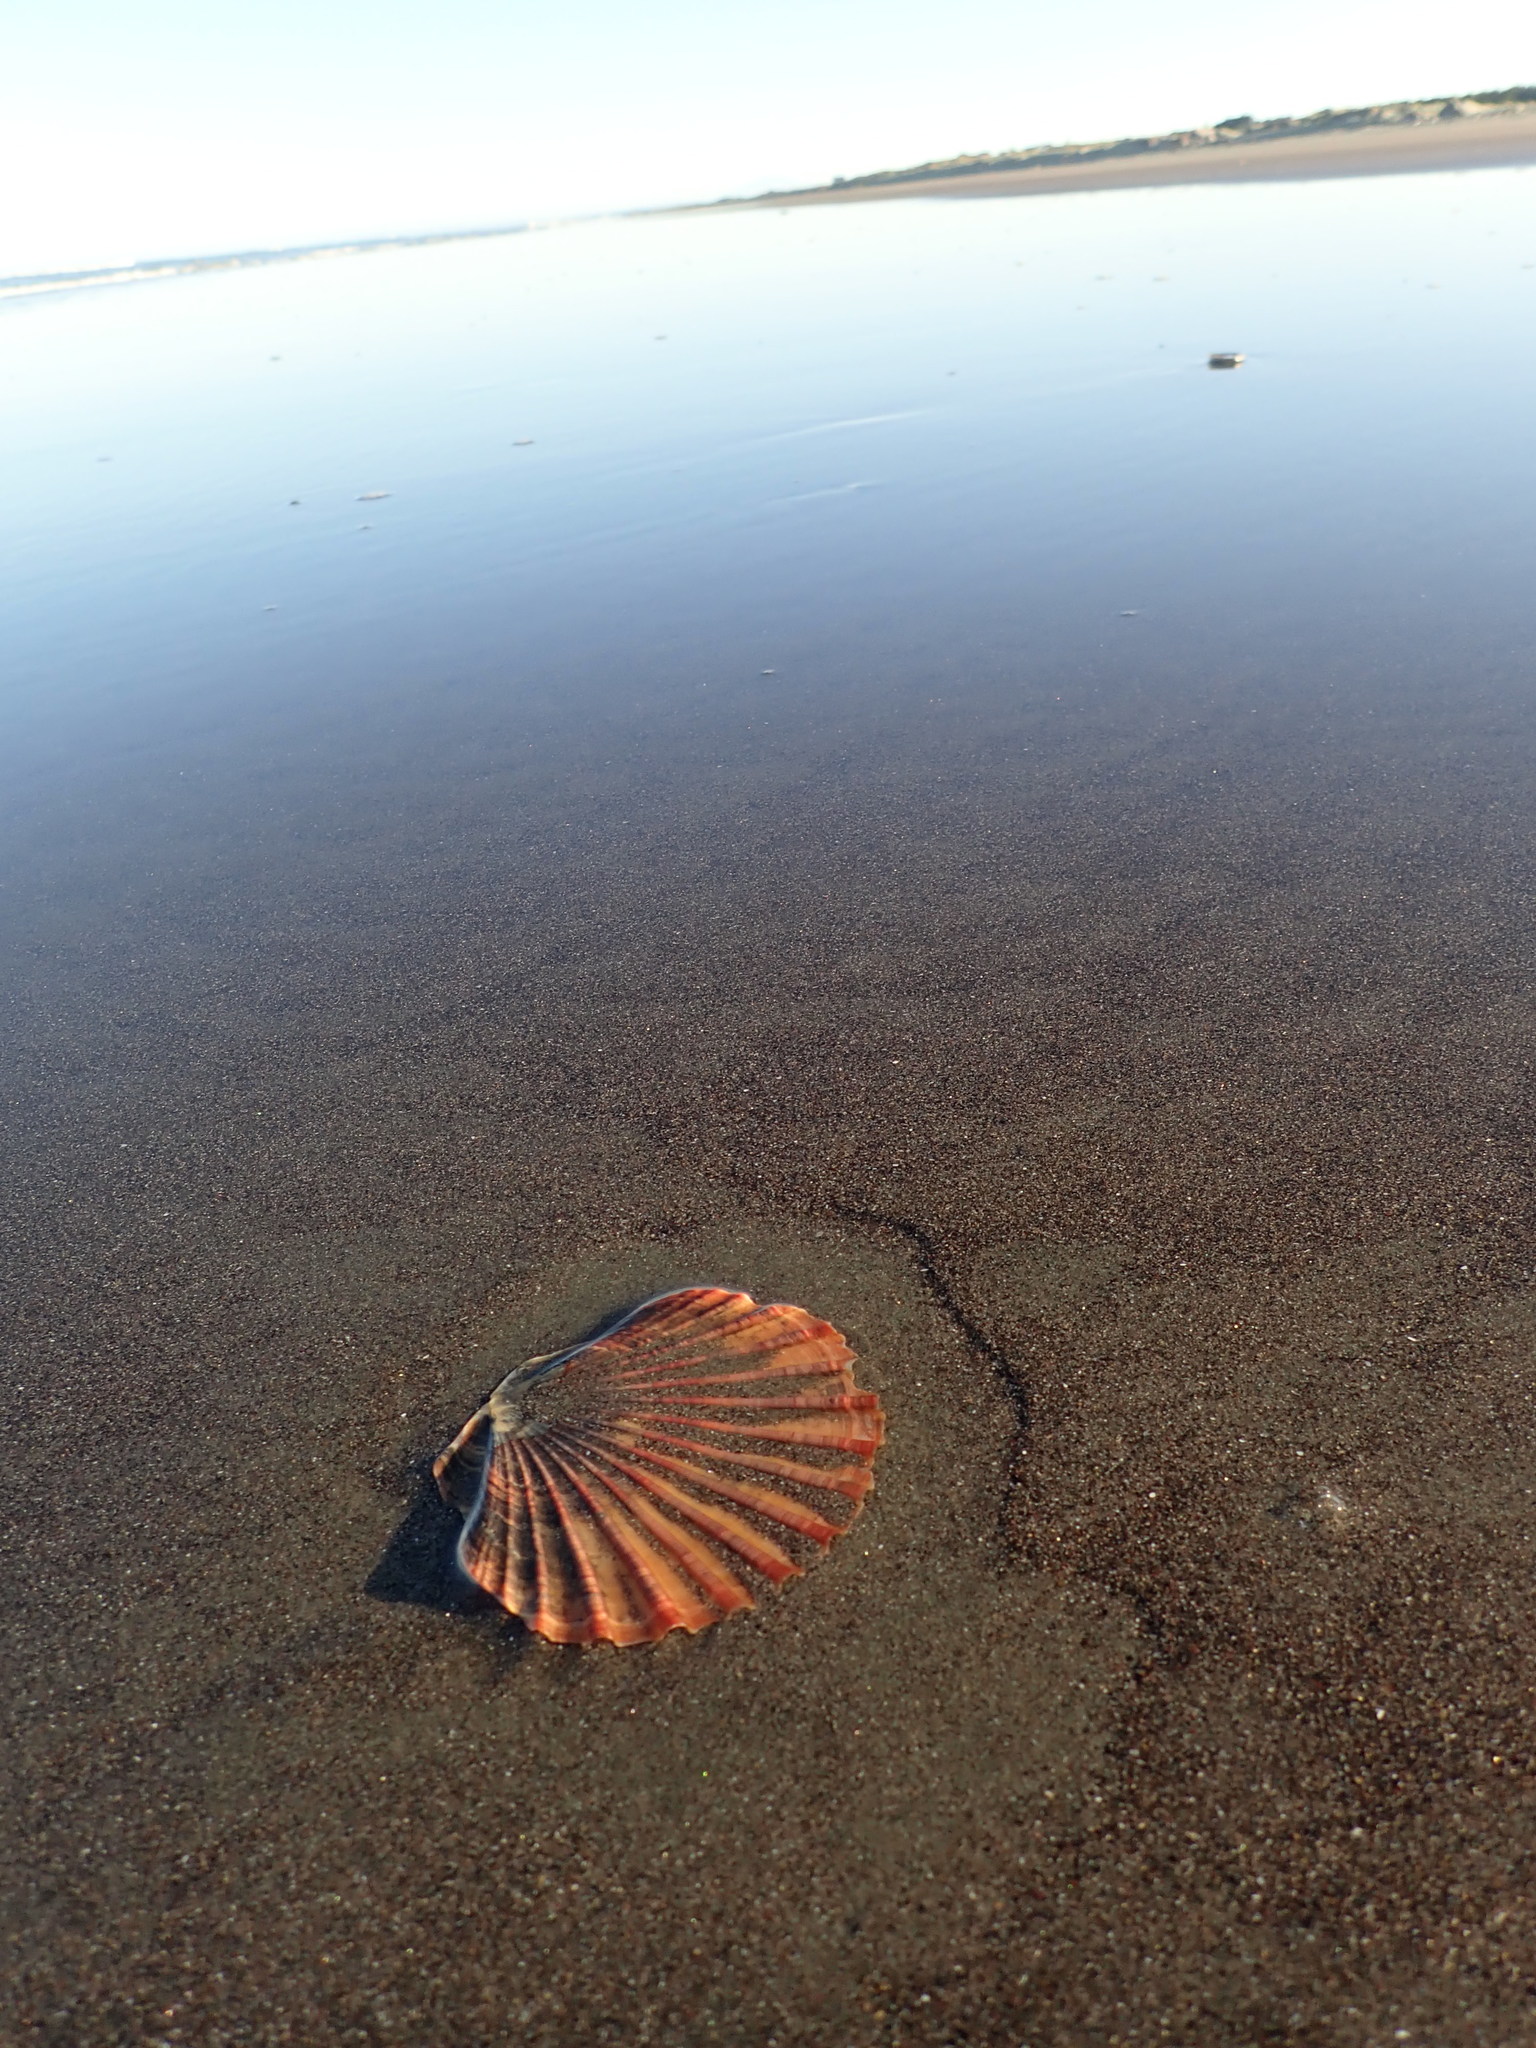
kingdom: Animalia
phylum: Mollusca
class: Bivalvia
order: Pectinida
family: Pectinidae
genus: Pecten
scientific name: Pecten novaezelandiae
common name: New zealand scallop
